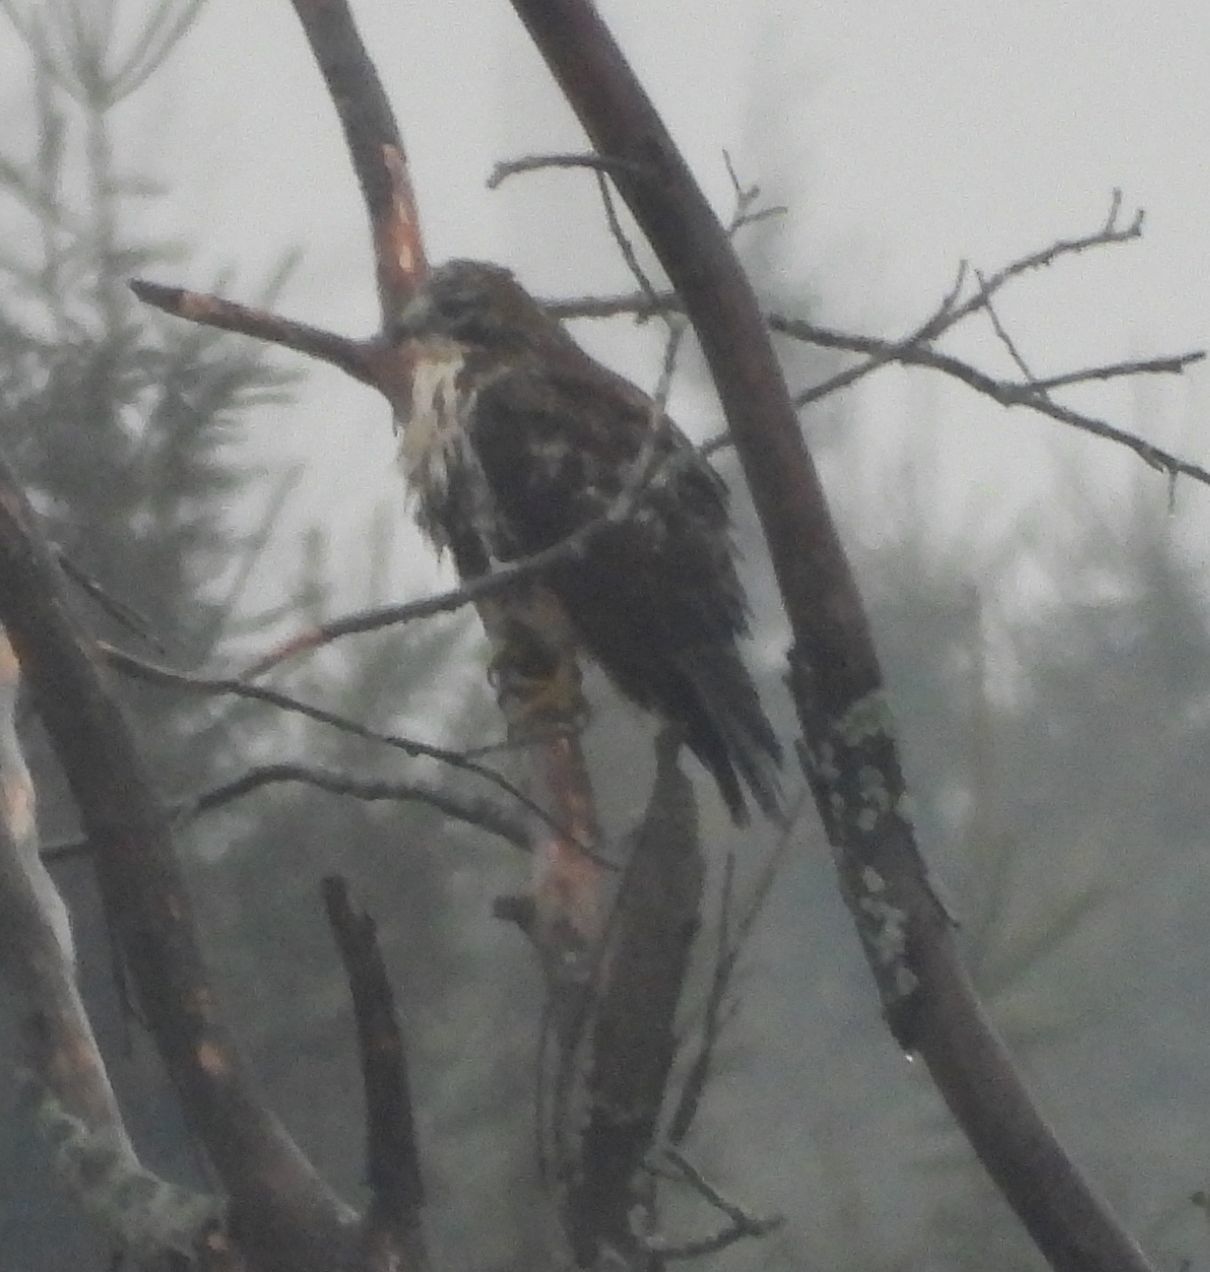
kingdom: Animalia
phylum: Chordata
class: Aves
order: Accipitriformes
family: Accipitridae
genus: Buteo
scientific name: Buteo jamaicensis
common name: Red-tailed hawk
